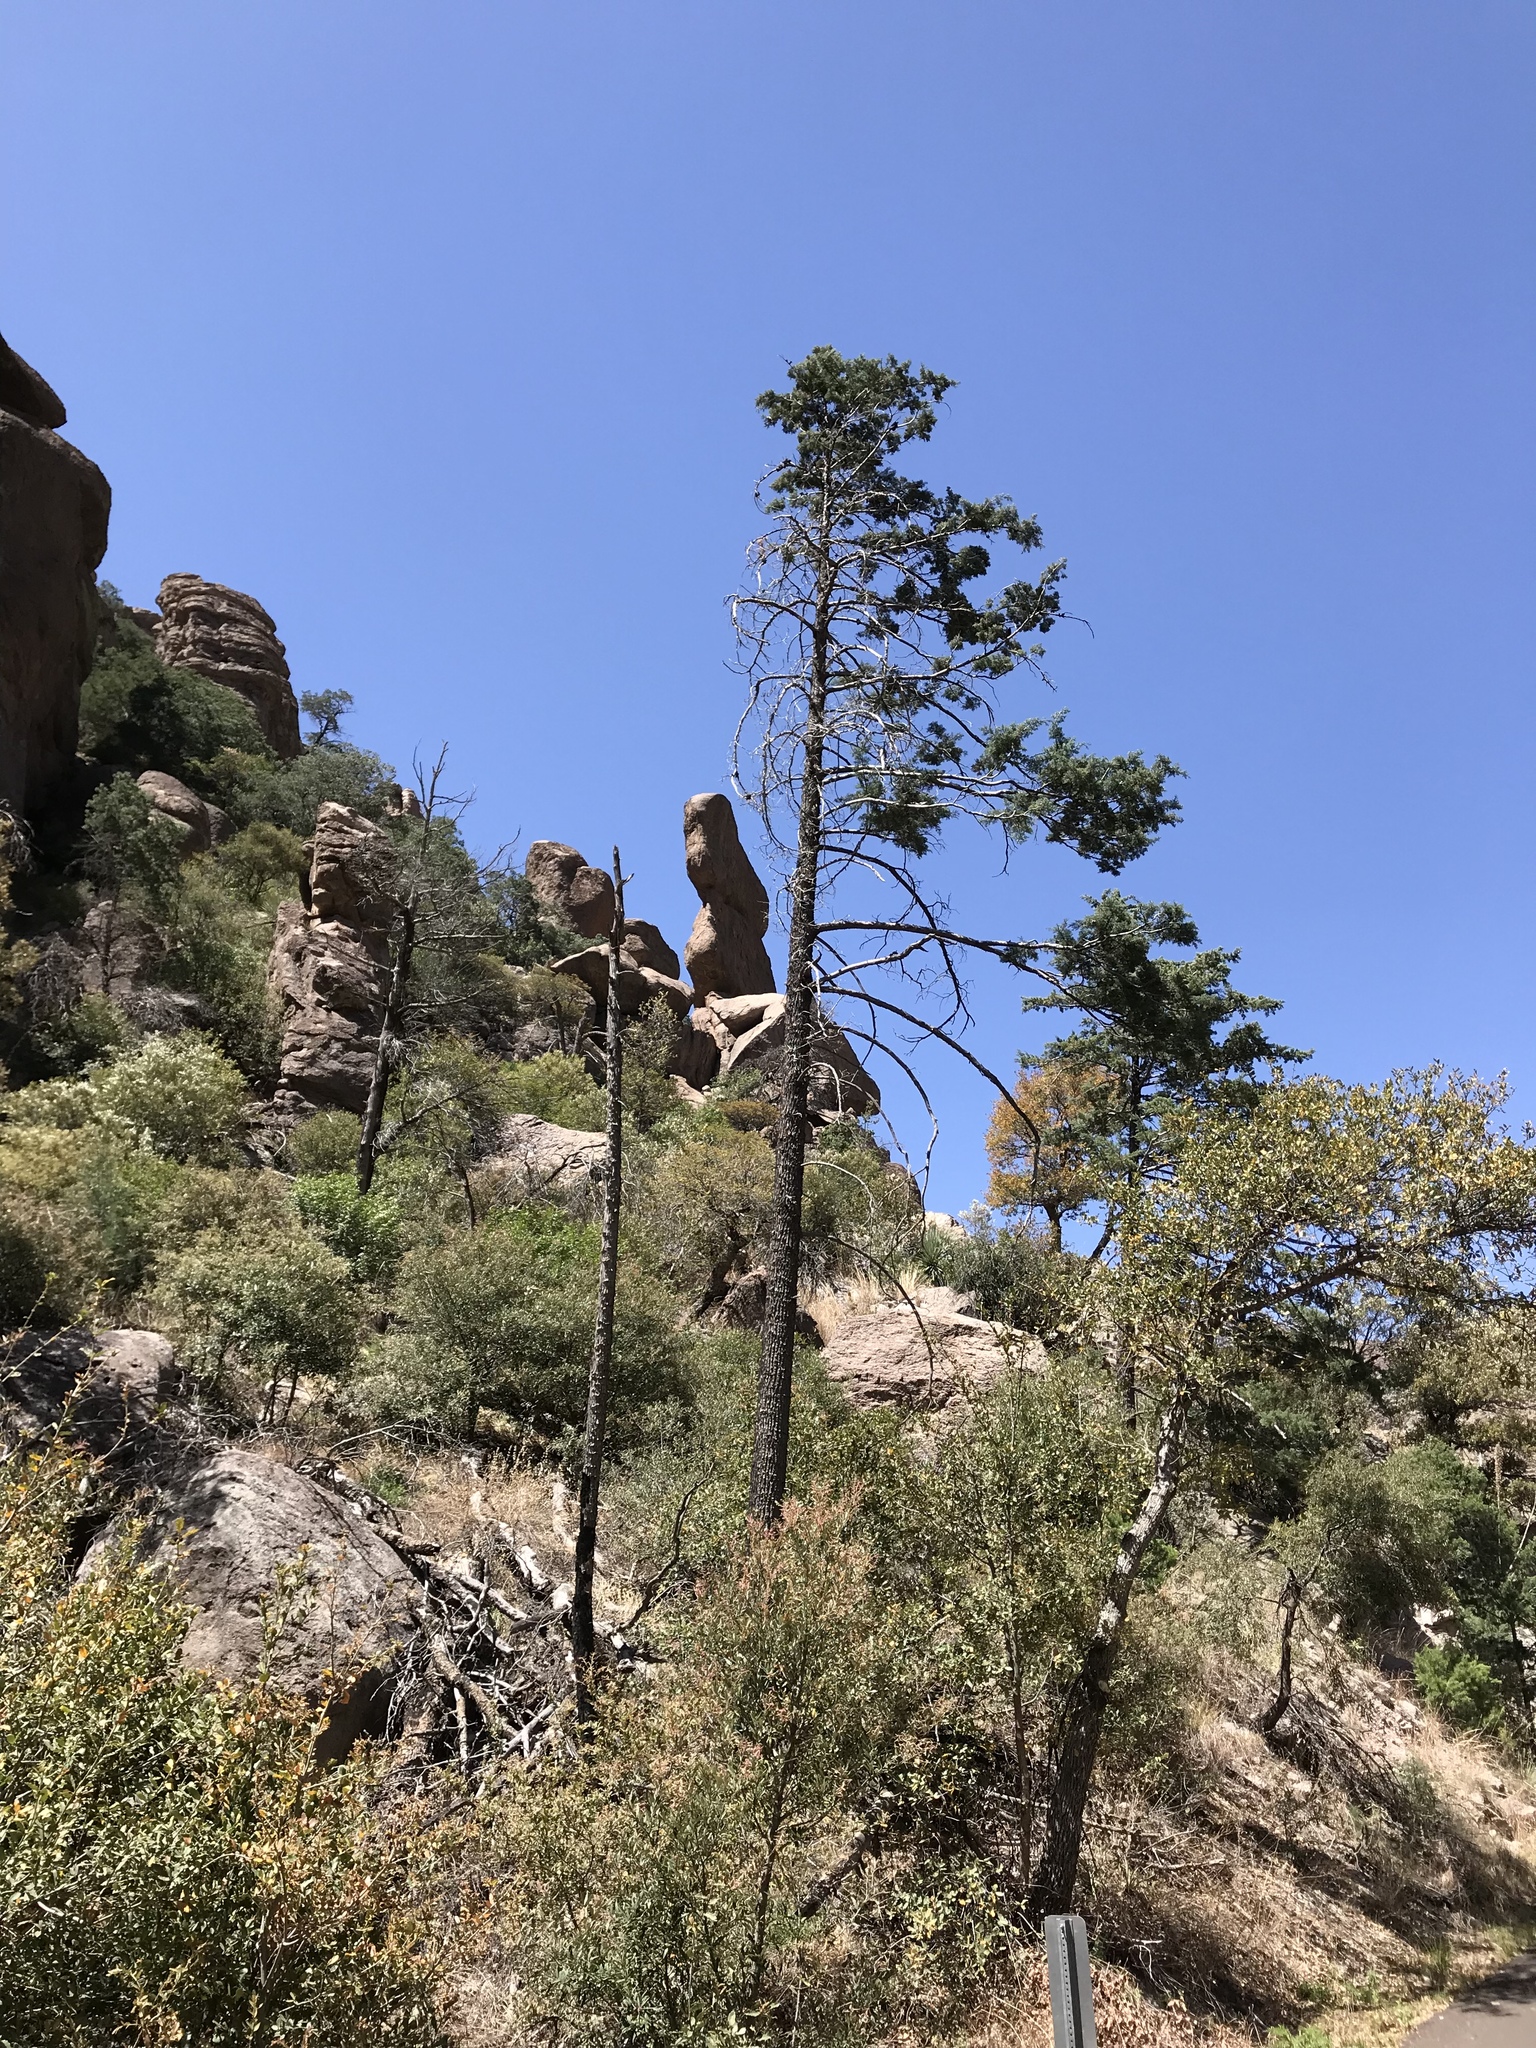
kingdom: Plantae
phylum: Tracheophyta
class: Pinopsida
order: Pinales
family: Cupressaceae
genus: Cupressus
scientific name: Cupressus arizonica
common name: Arizona cypress
